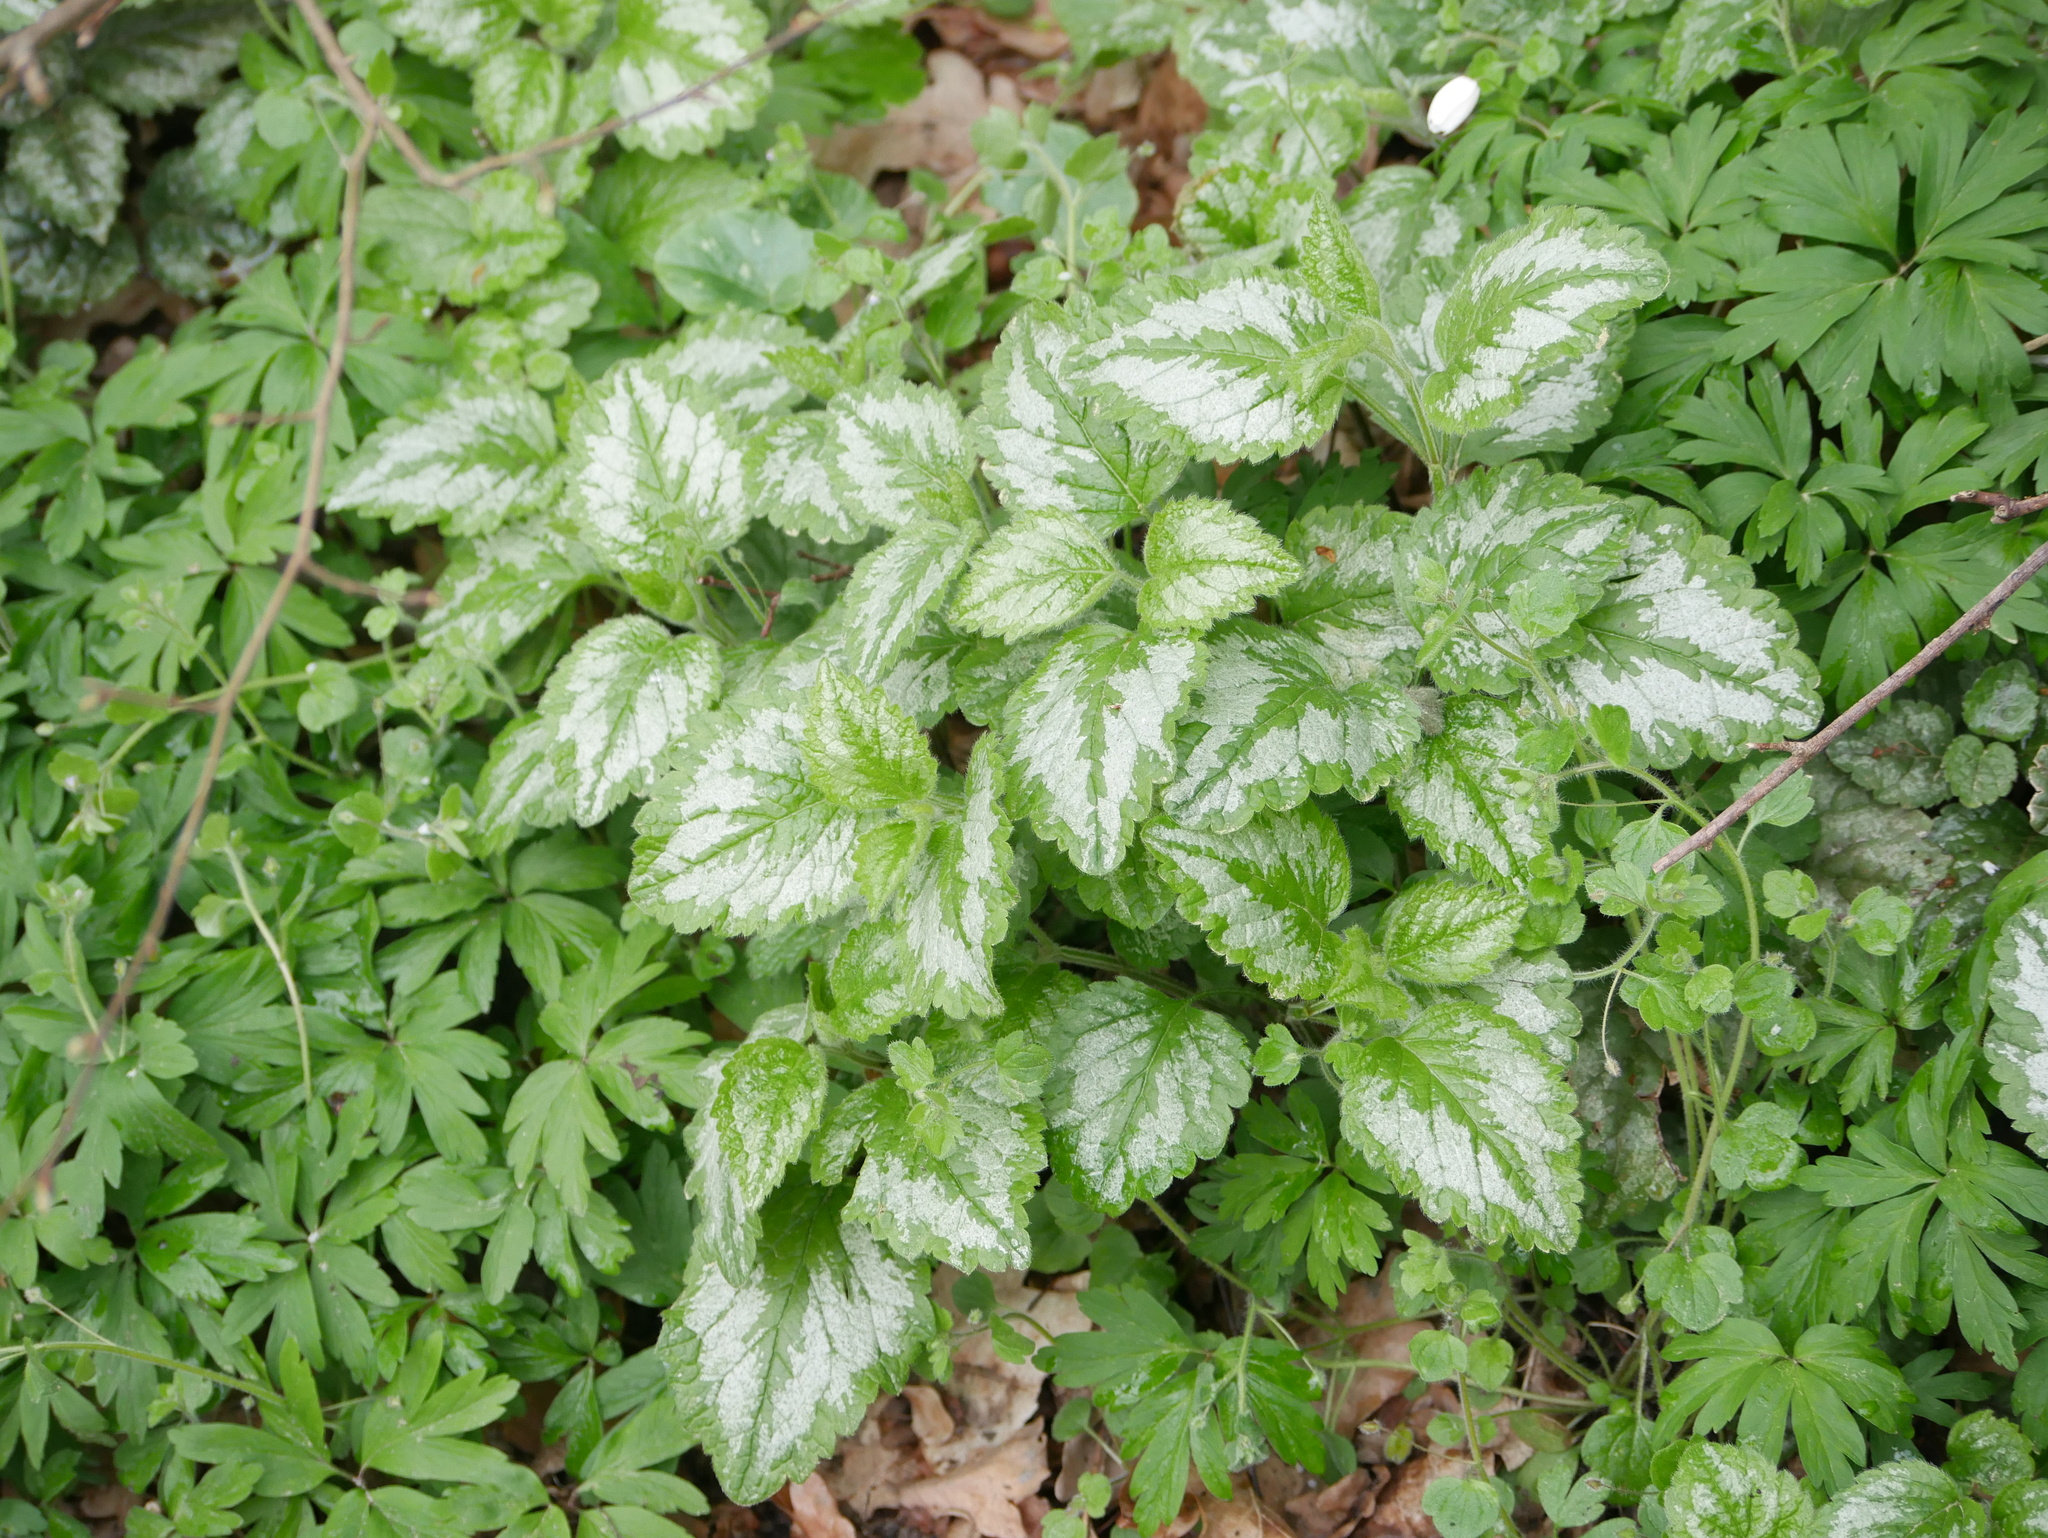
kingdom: Plantae
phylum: Tracheophyta
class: Magnoliopsida
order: Lamiales
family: Lamiaceae
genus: Lamium
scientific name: Lamium galeobdolon
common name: Yellow archangel
